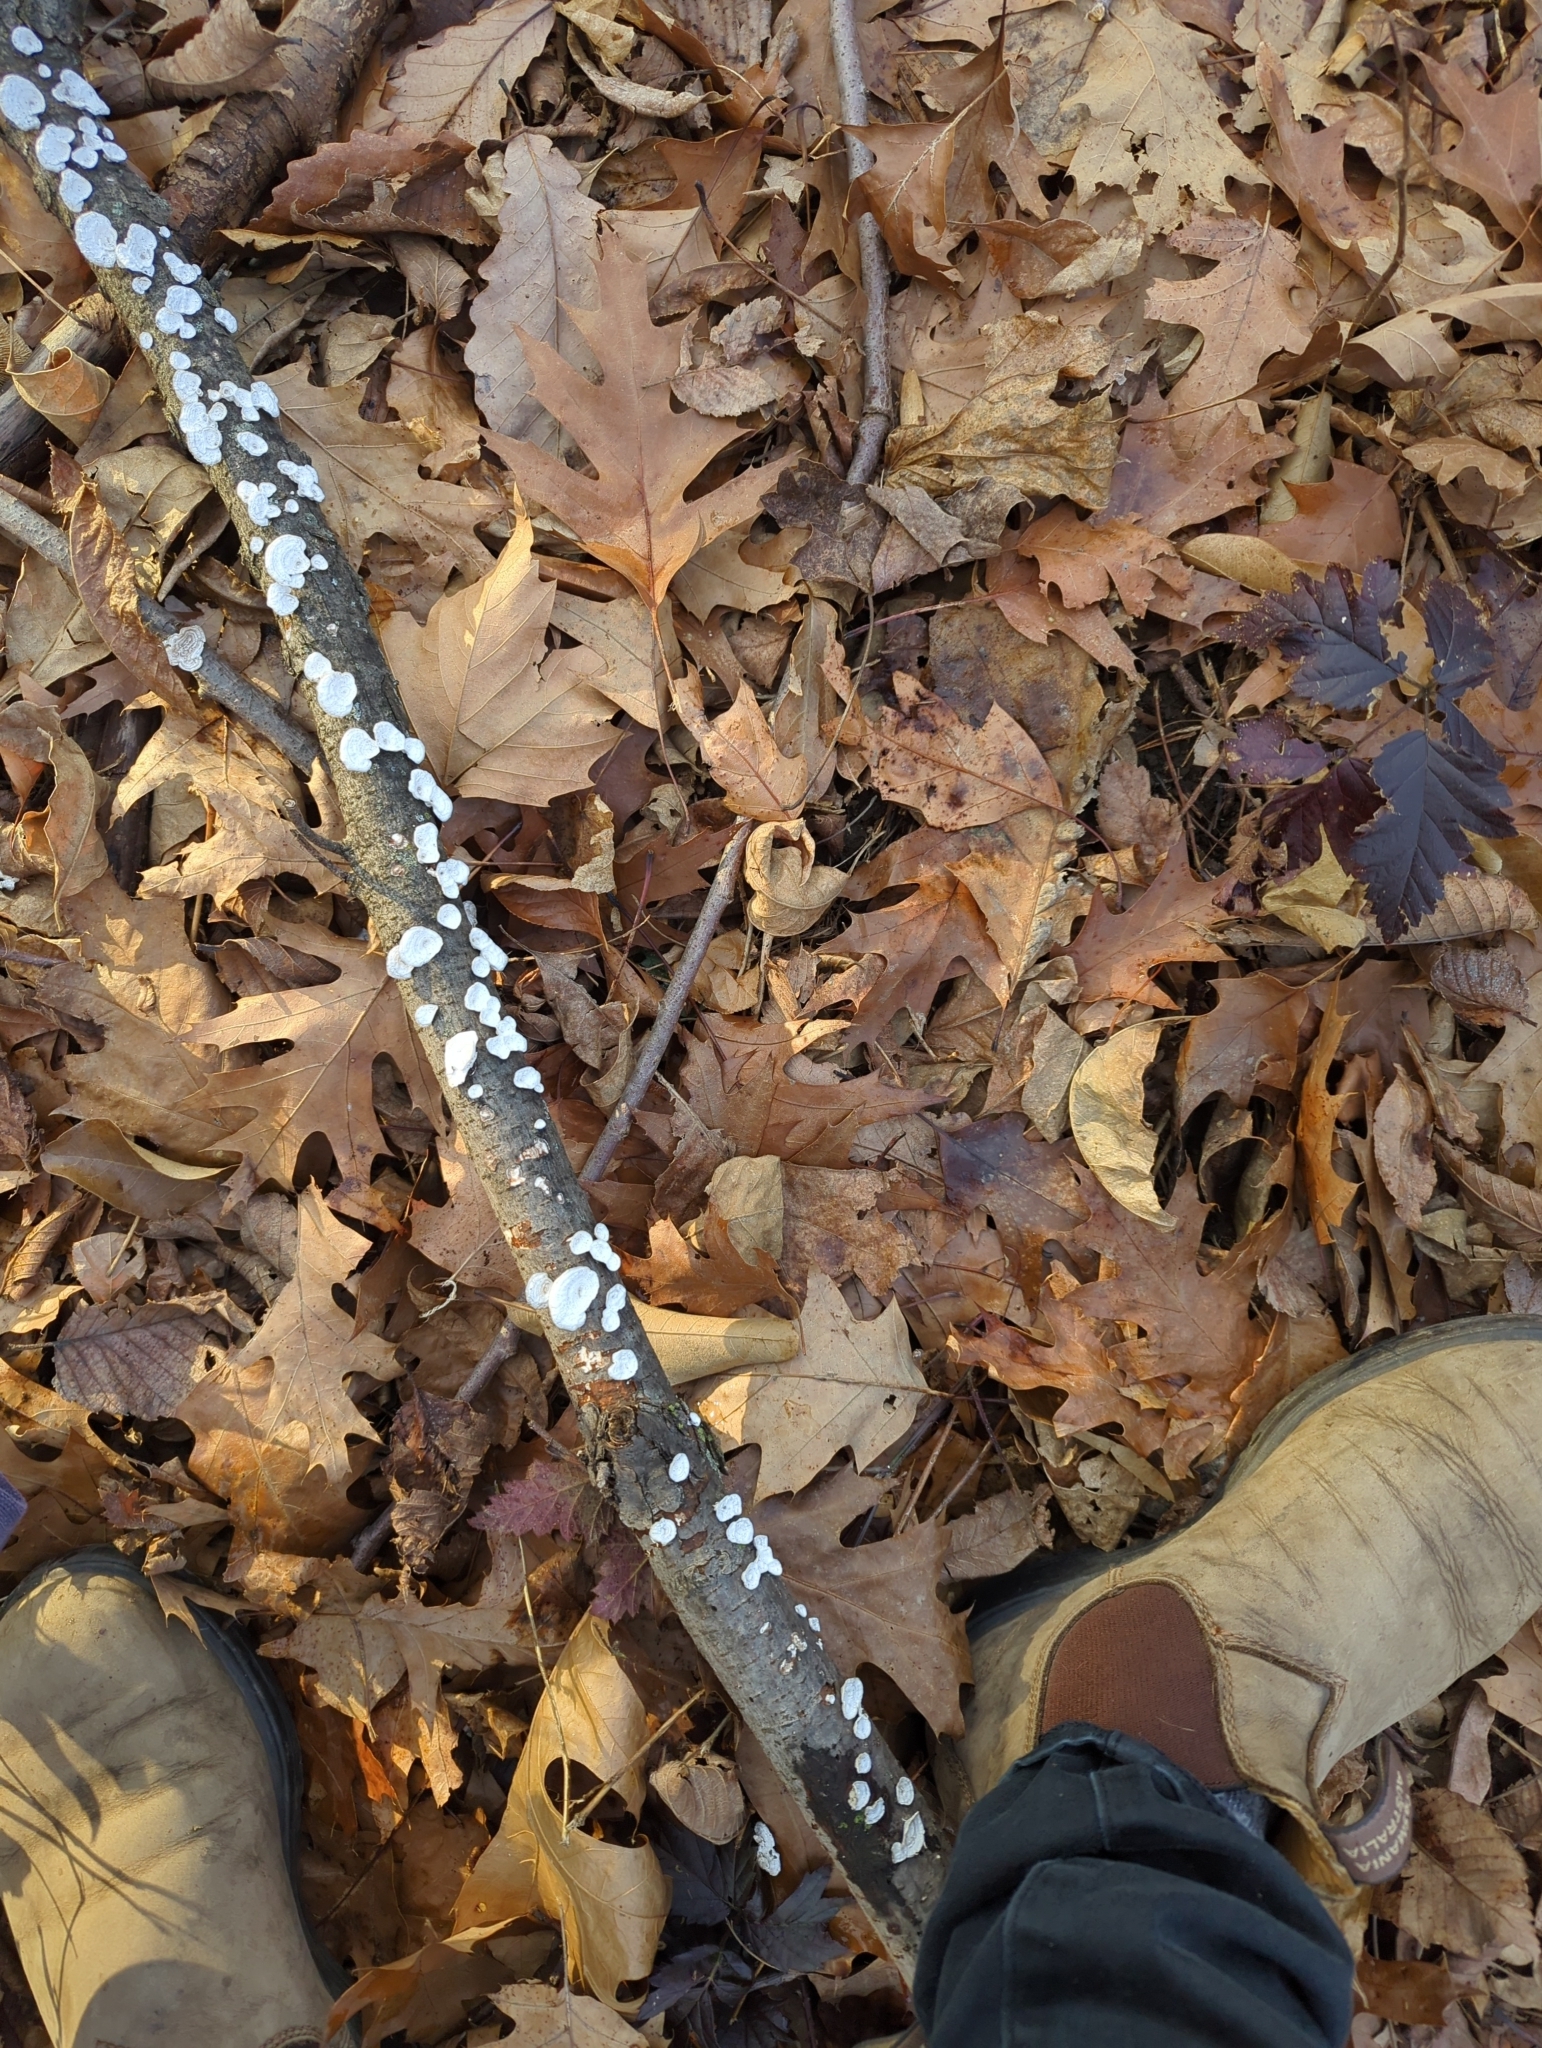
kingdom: Fungi
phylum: Basidiomycota
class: Agaricomycetes
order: Polyporales
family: Polyporaceae
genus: Poronidulus
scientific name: Poronidulus conchifer
